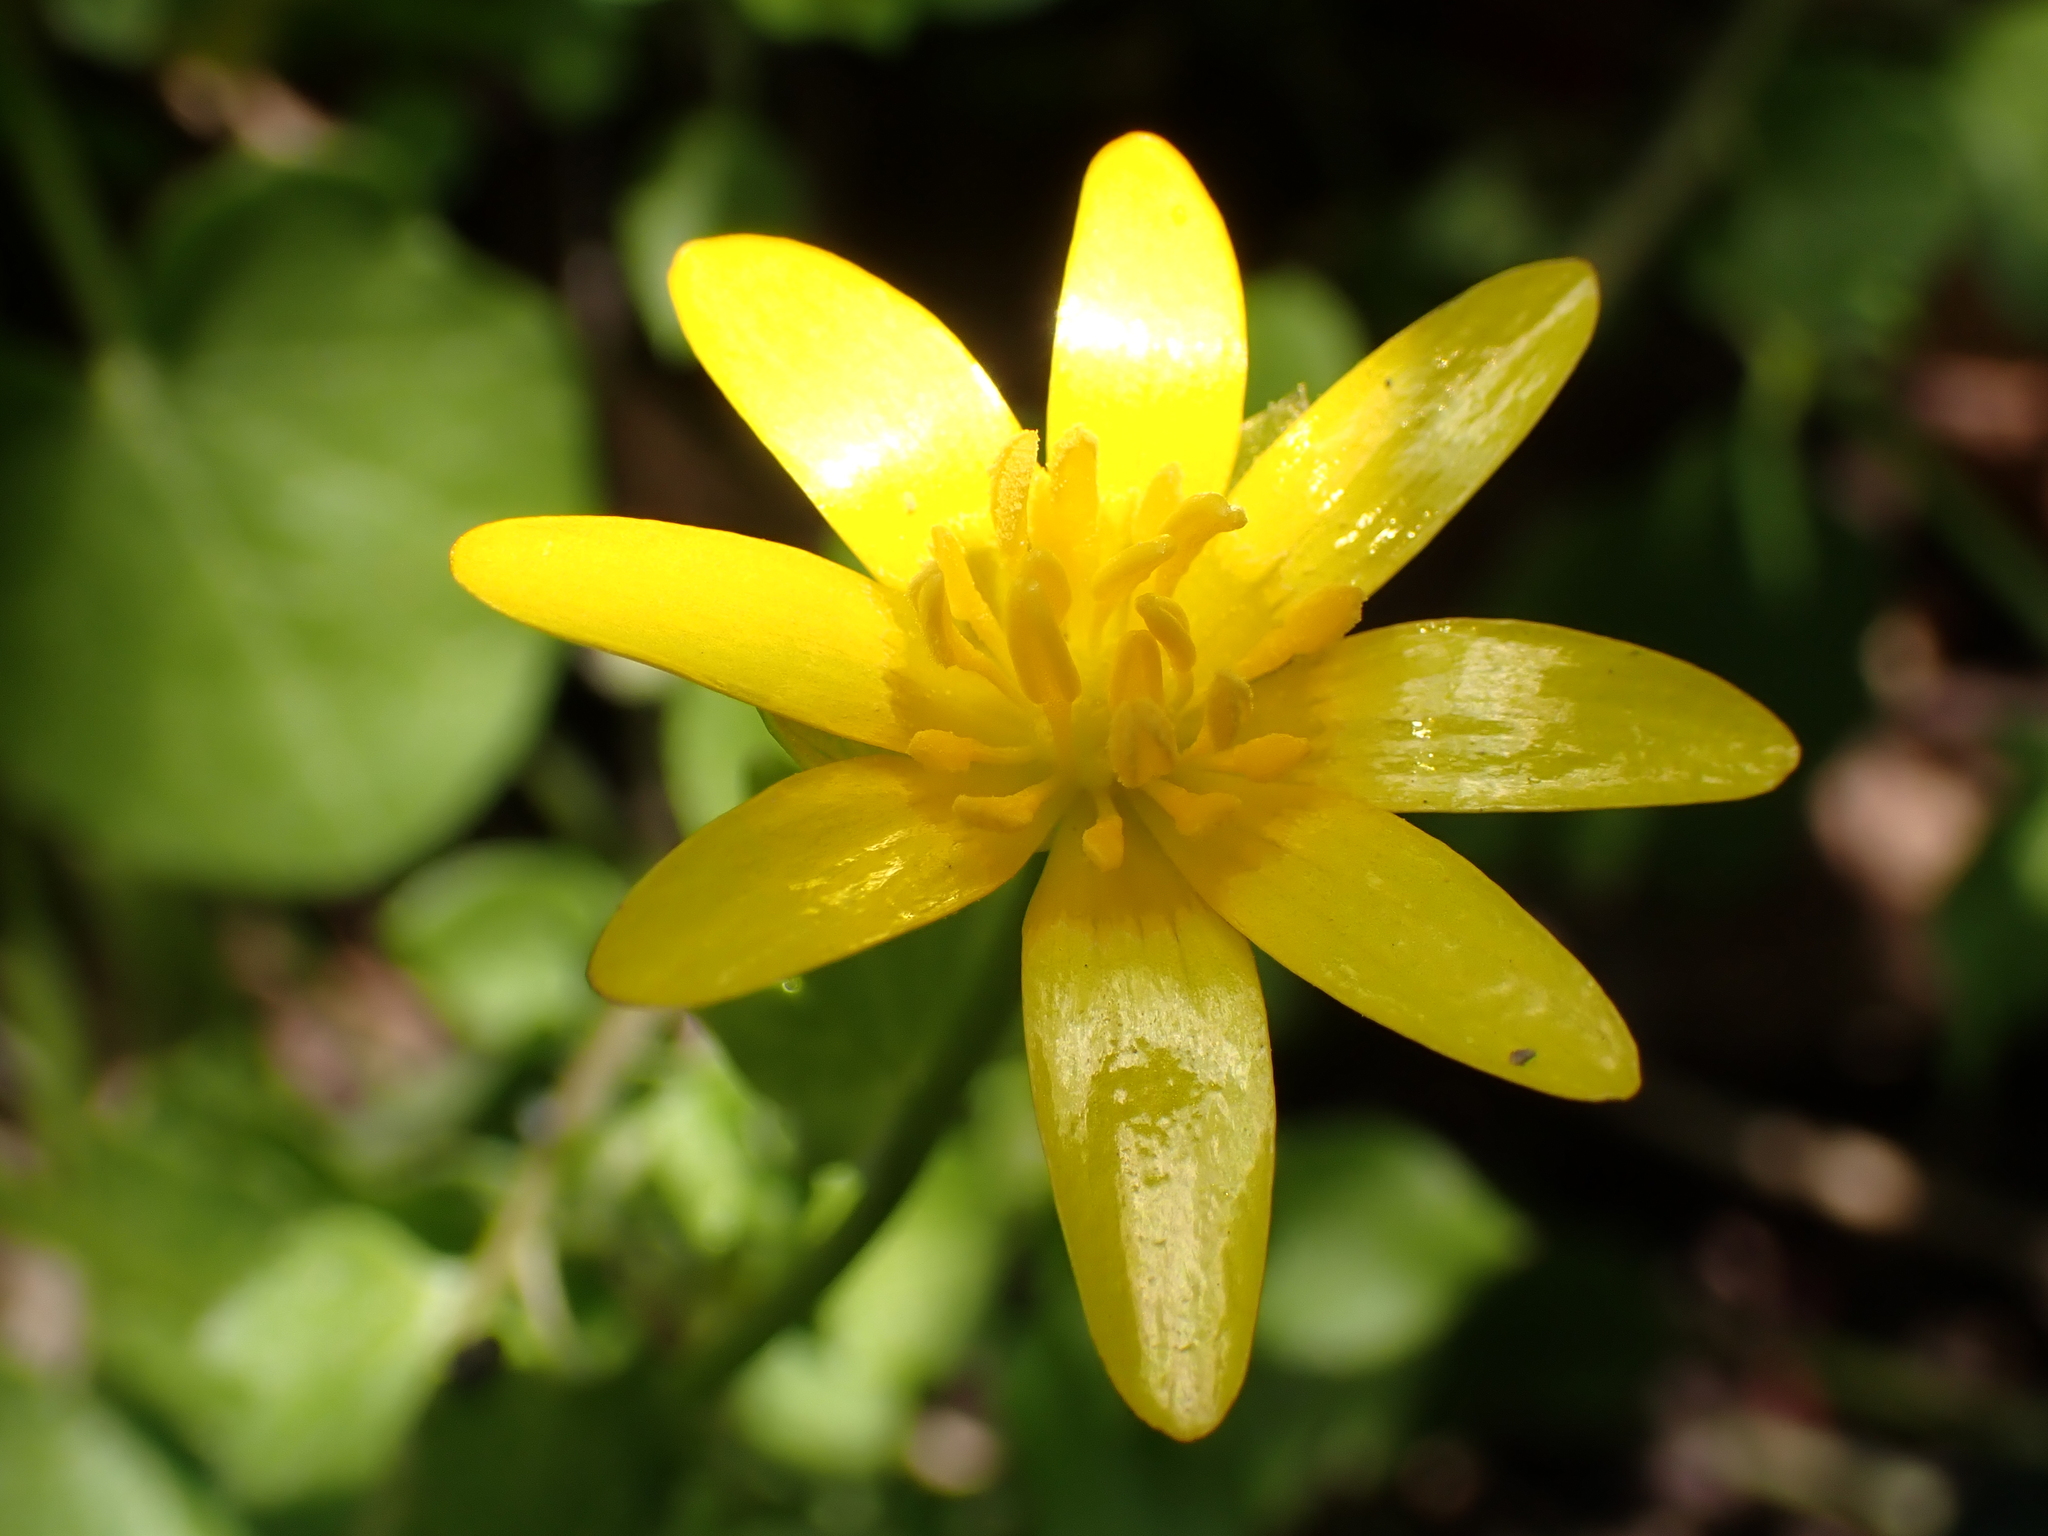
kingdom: Plantae
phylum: Tracheophyta
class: Magnoliopsida
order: Ranunculales
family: Ranunculaceae
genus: Ficaria
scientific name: Ficaria verna
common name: Lesser celandine
